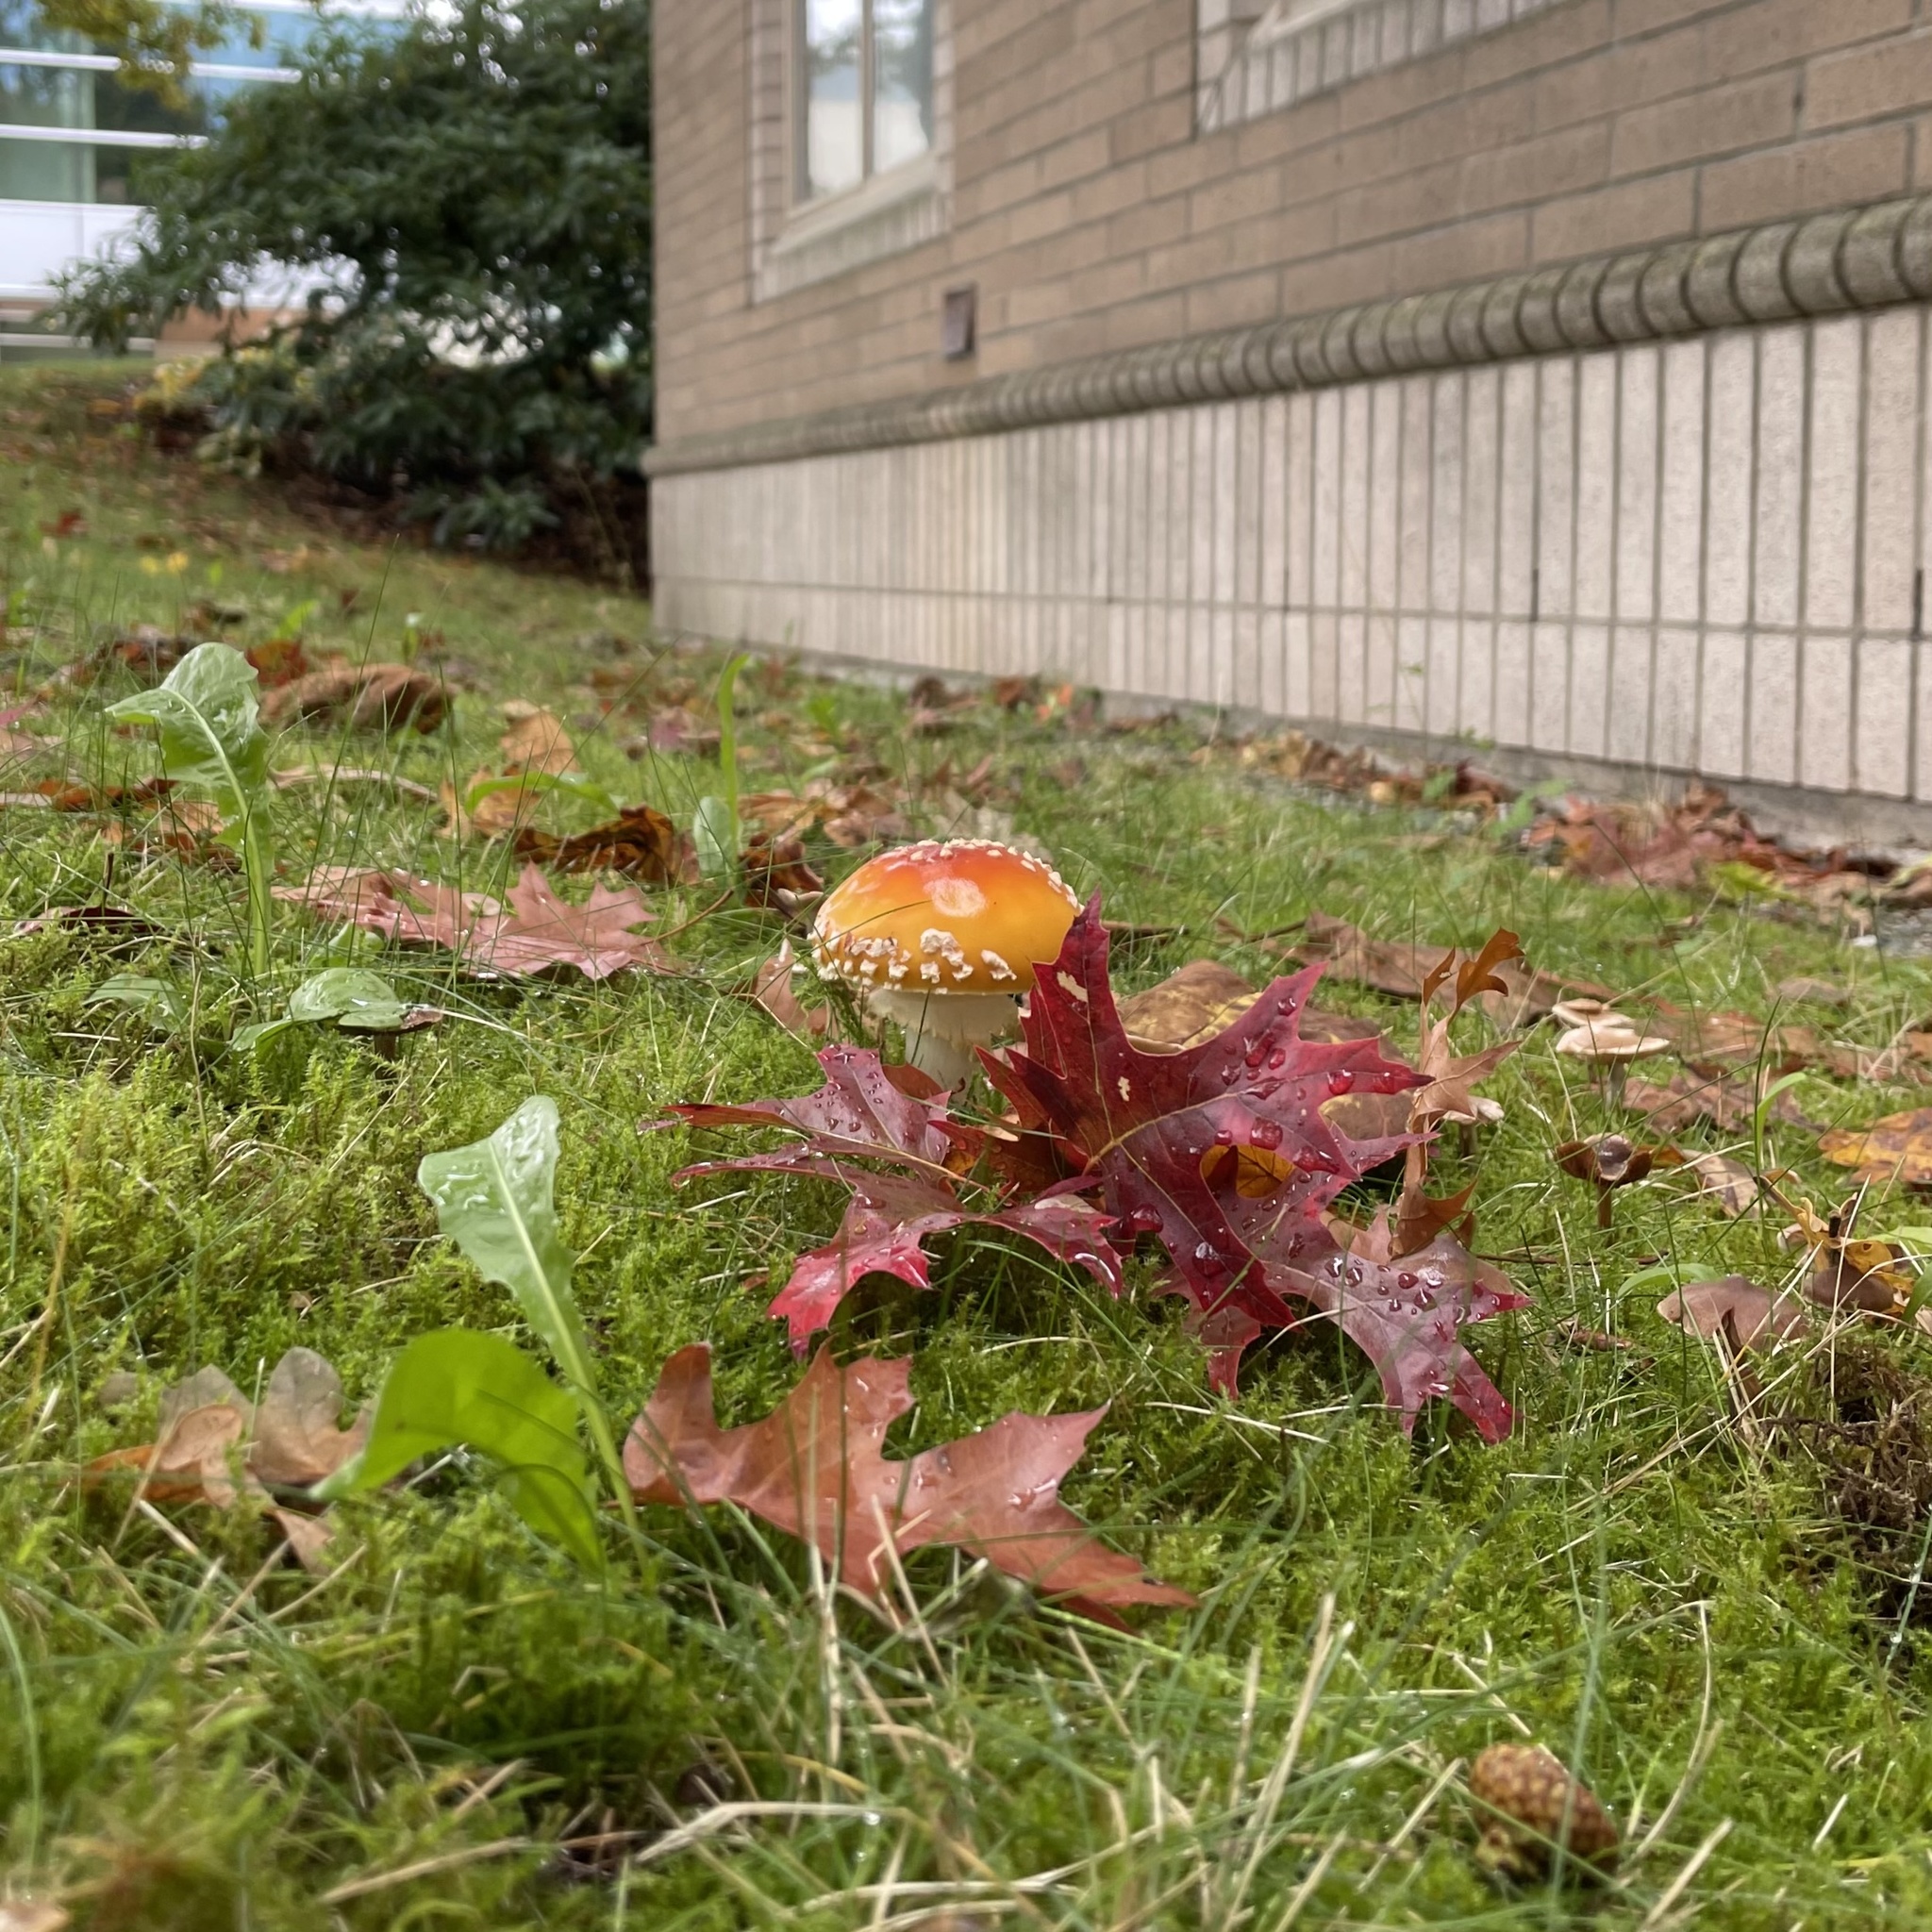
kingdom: Fungi
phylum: Basidiomycota
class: Agaricomycetes
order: Agaricales
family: Amanitaceae
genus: Amanita
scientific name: Amanita muscaria
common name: Fly agaric
